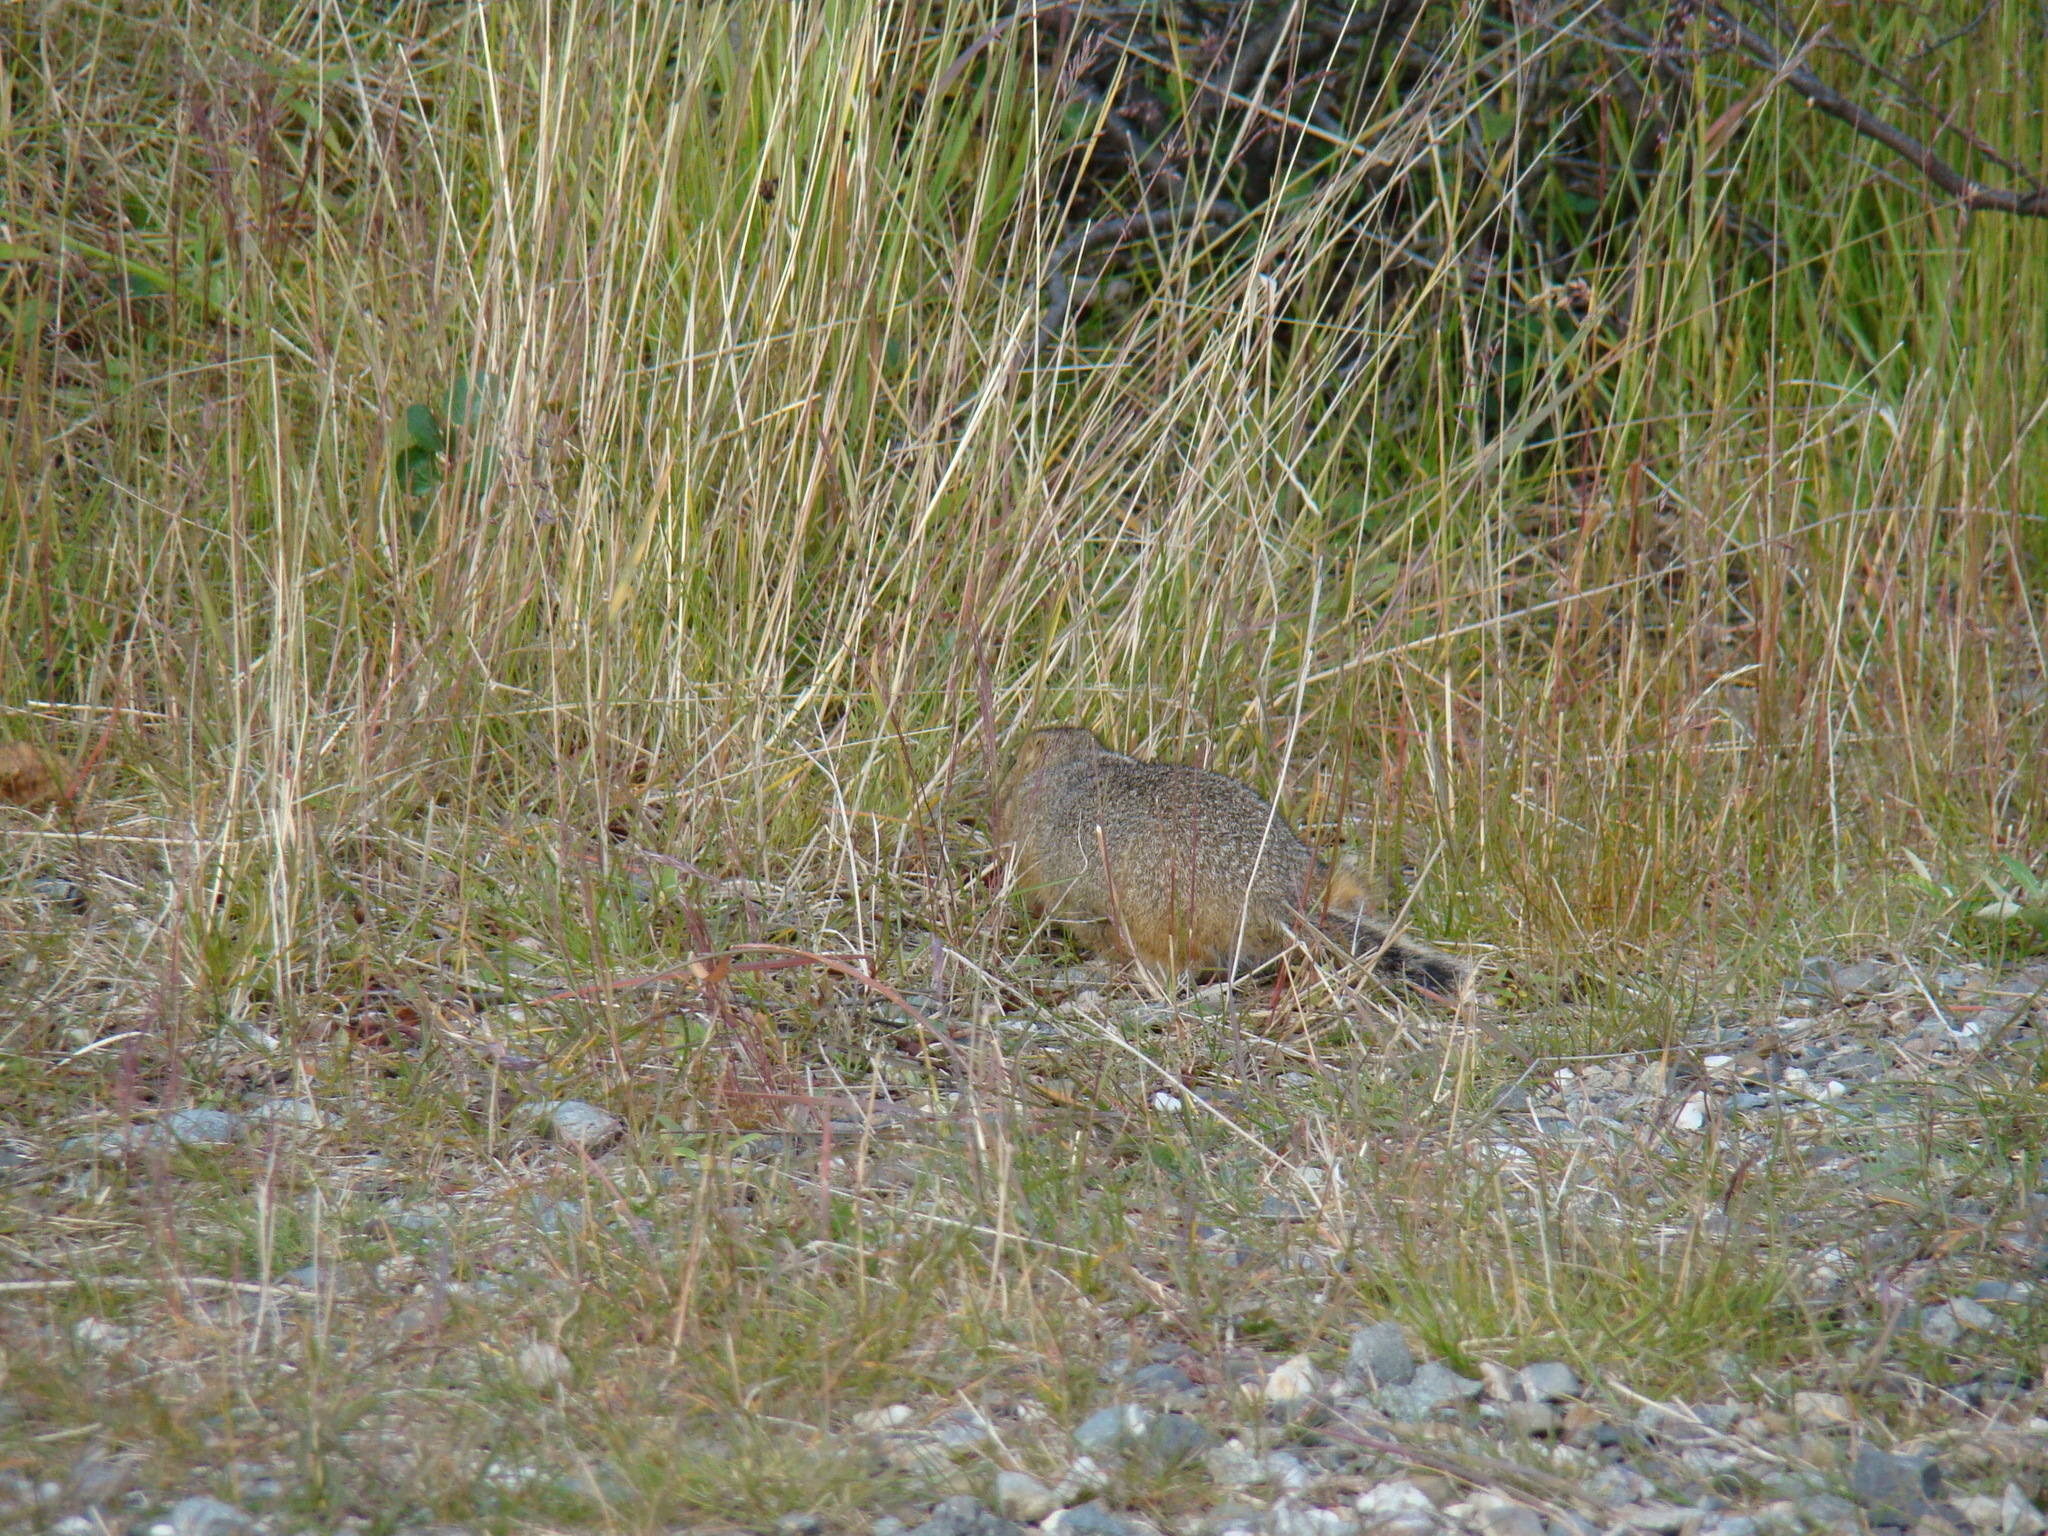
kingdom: Animalia
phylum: Chordata
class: Mammalia
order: Rodentia
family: Sciuridae
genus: Urocitellus
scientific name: Urocitellus parryii
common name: Arctic ground squirrel
